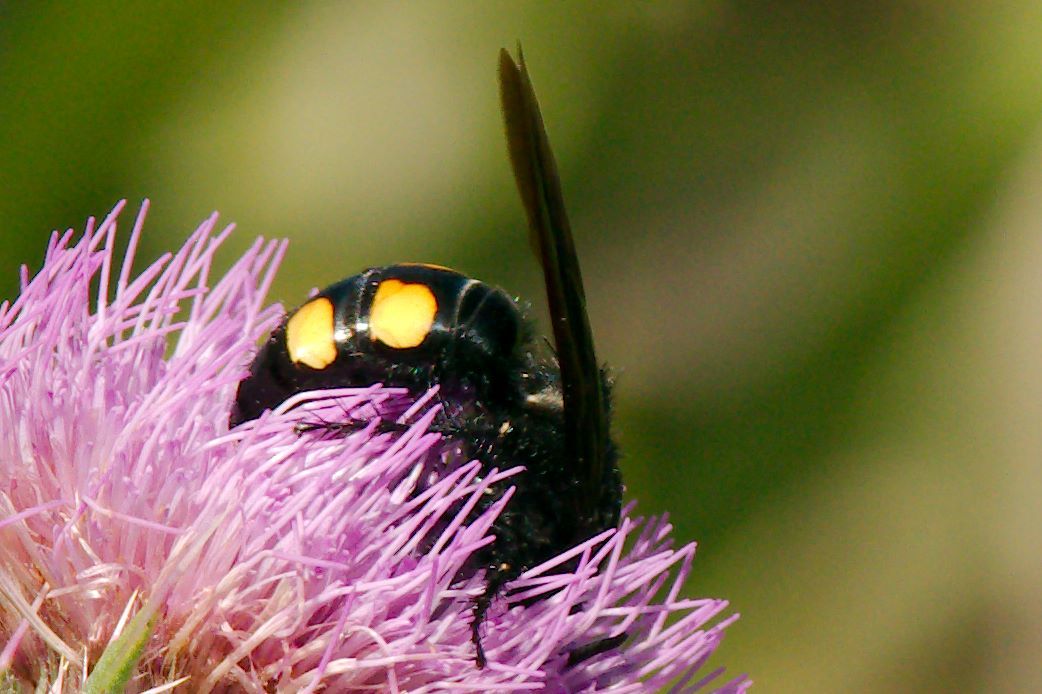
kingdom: Animalia
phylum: Arthropoda
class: Insecta
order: Hymenoptera
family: Scoliidae
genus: Pygodasis
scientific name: Pygodasis
